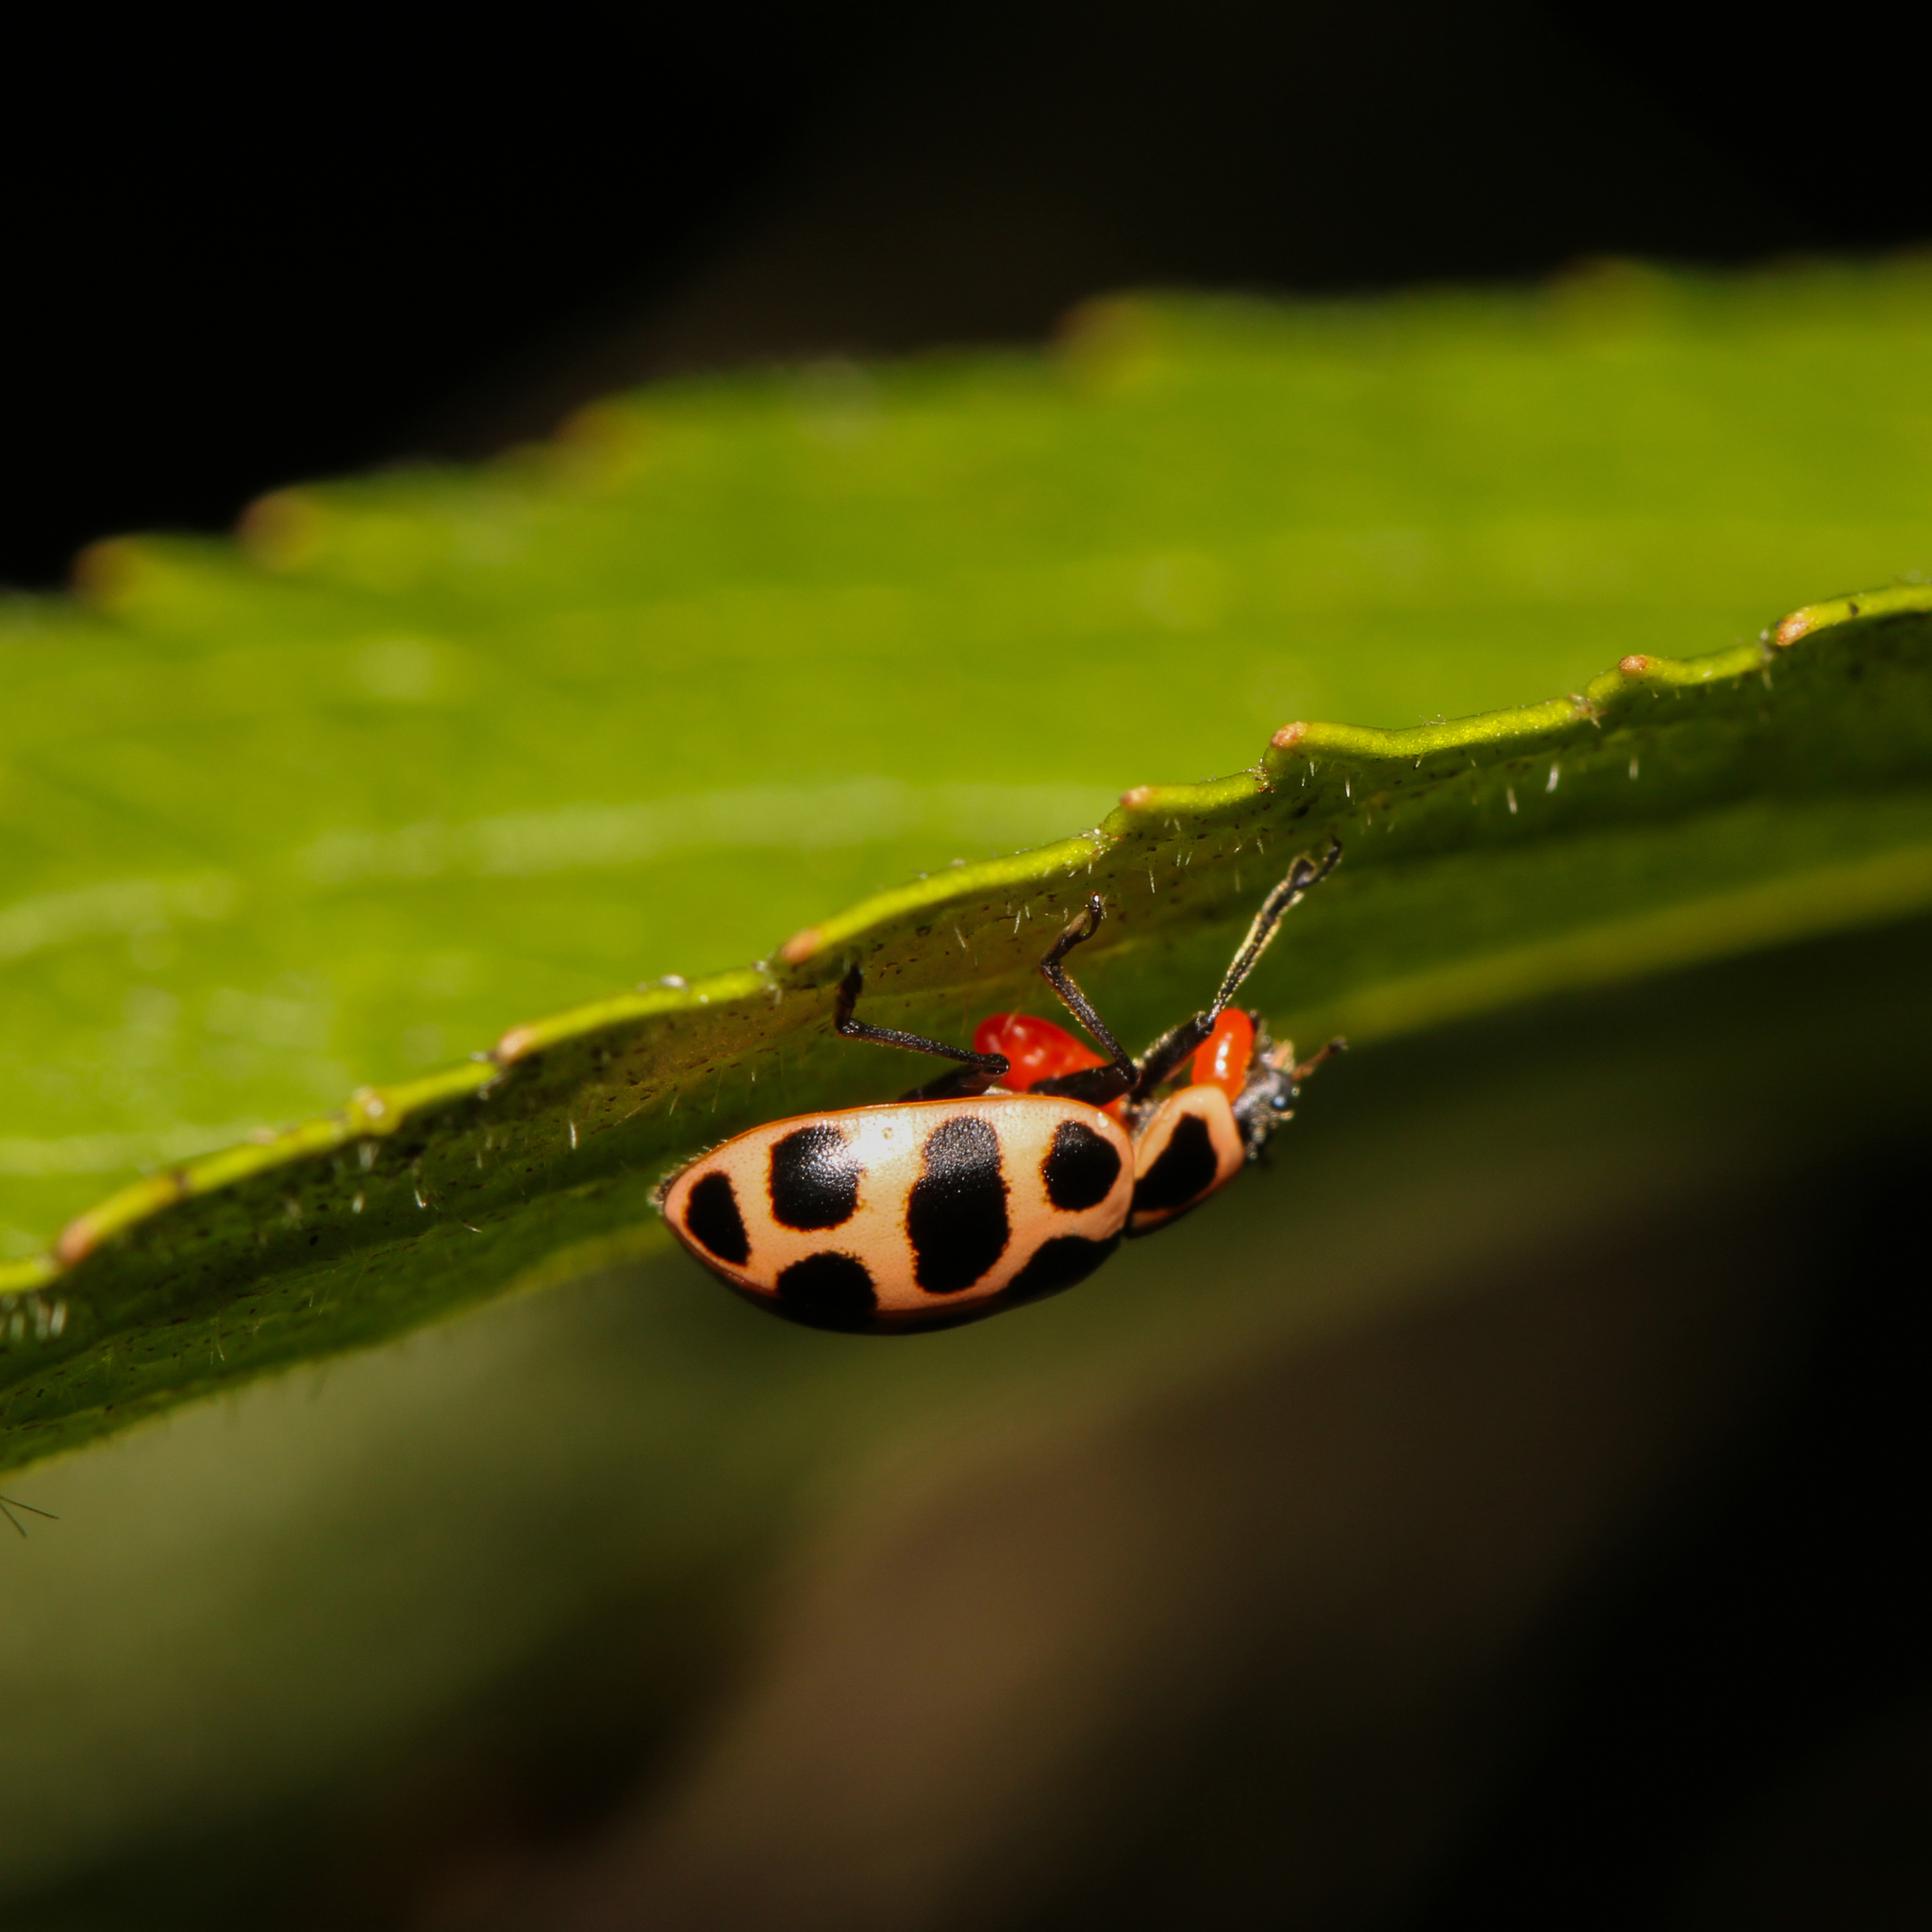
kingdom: Animalia
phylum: Arthropoda
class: Insecta
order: Coleoptera
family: Coccinellidae
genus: Coleomegilla
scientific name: Coleomegilla maculata
